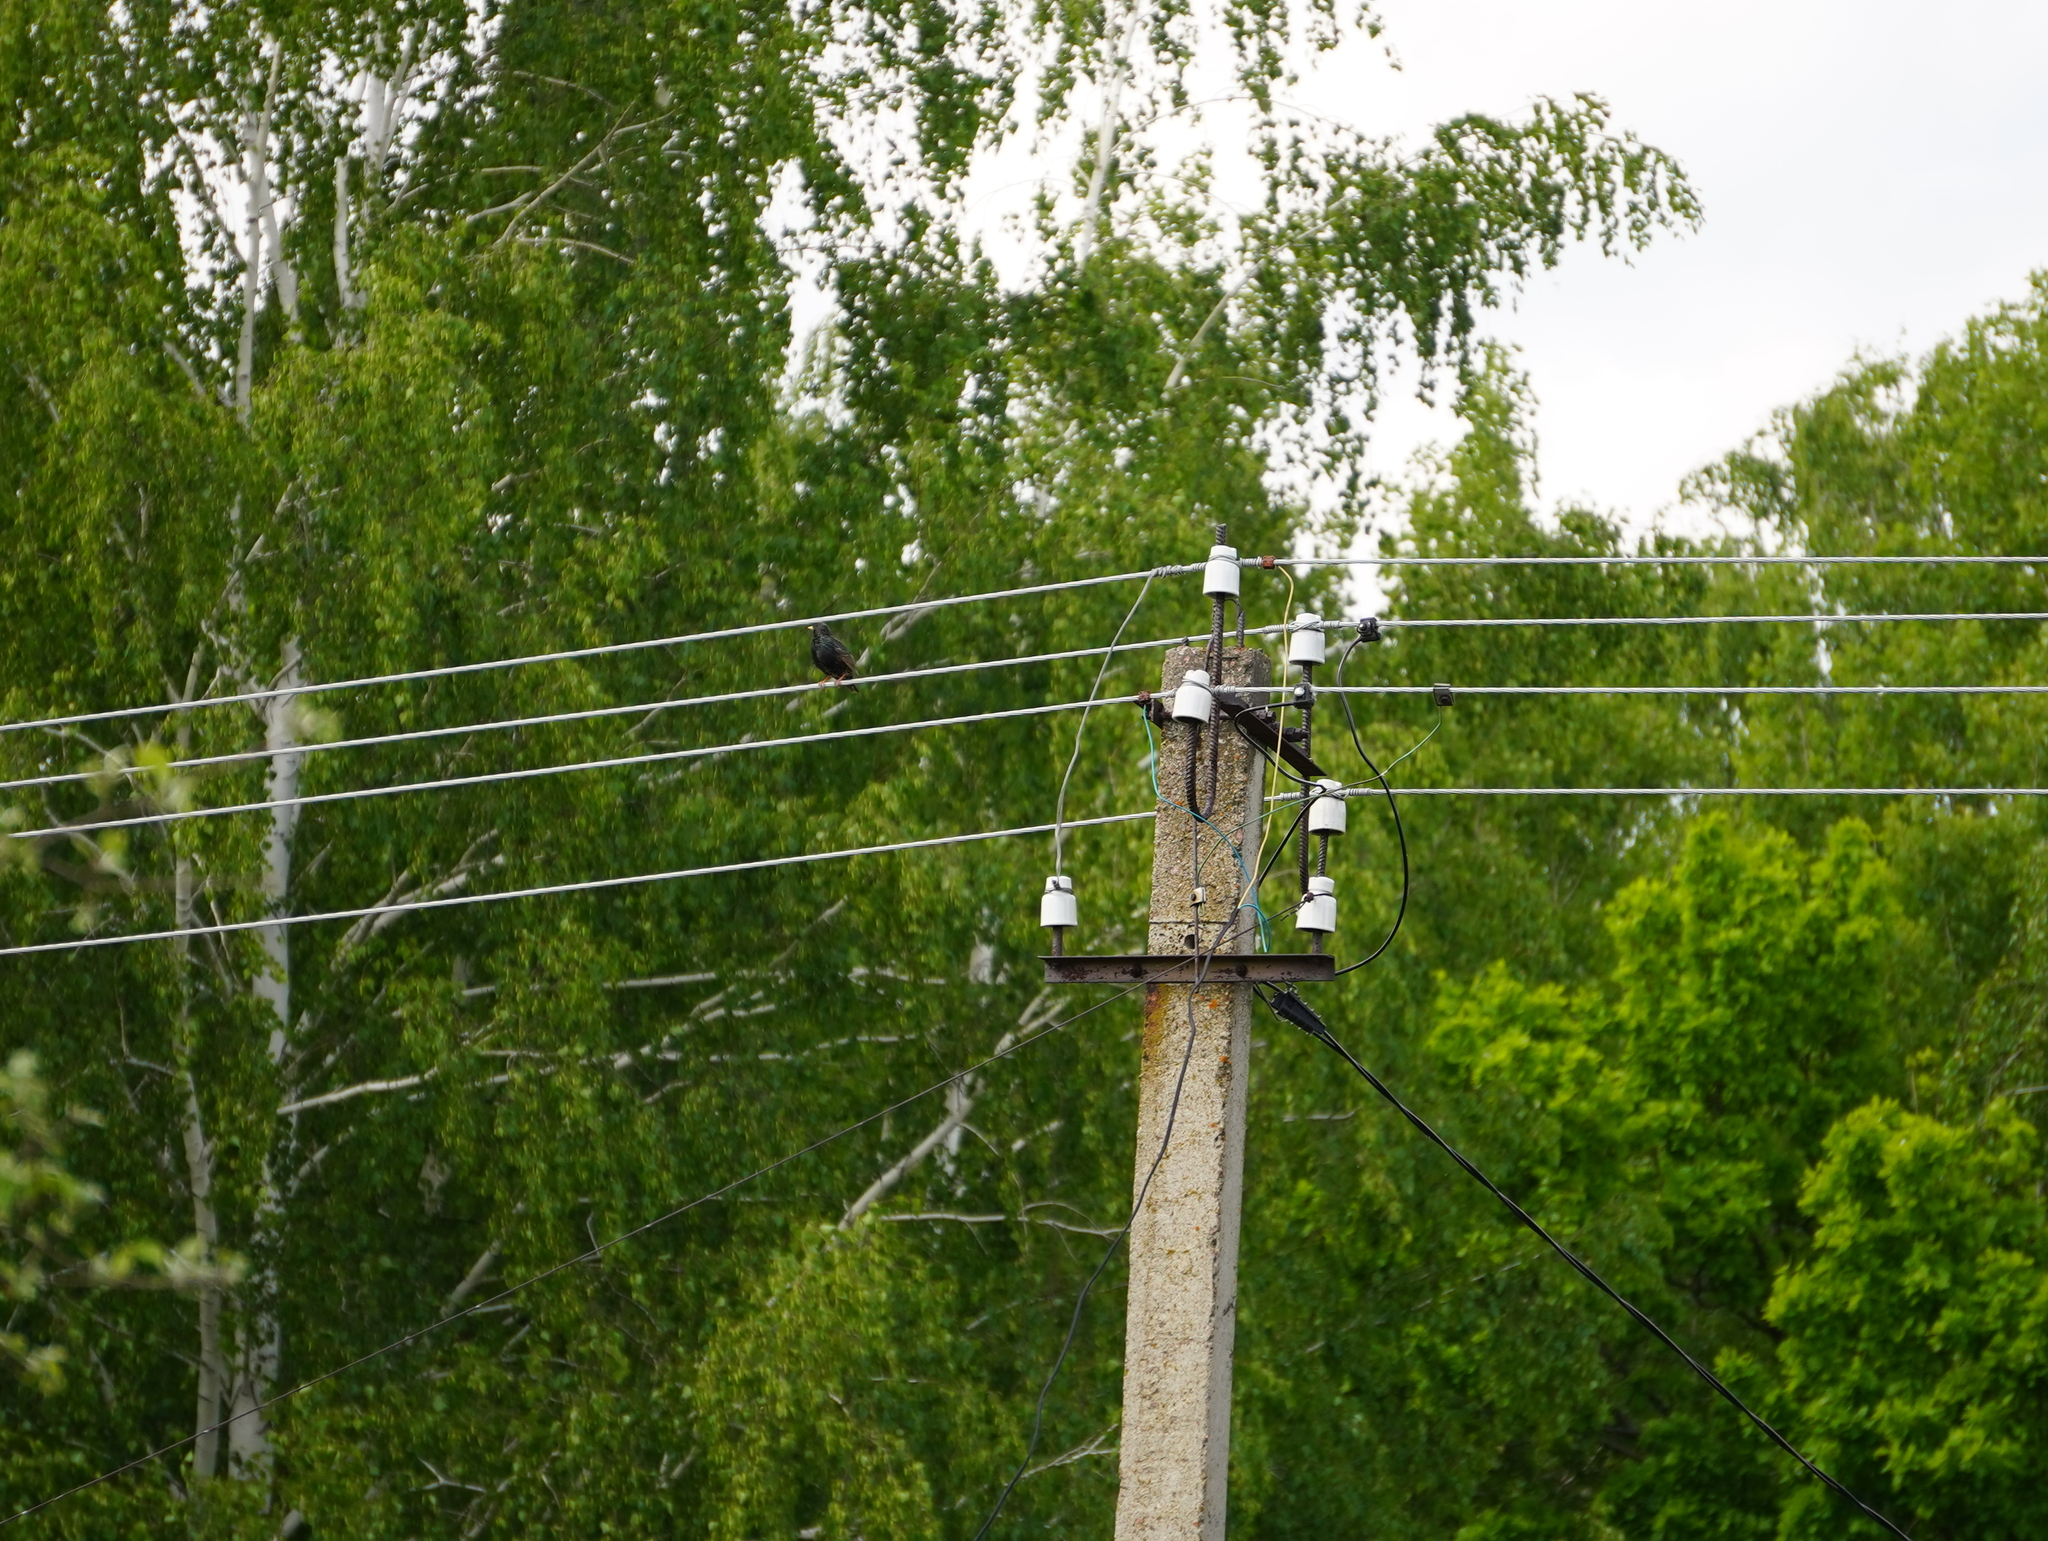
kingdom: Animalia
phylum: Chordata
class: Aves
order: Passeriformes
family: Sturnidae
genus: Sturnus
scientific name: Sturnus vulgaris
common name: Common starling
